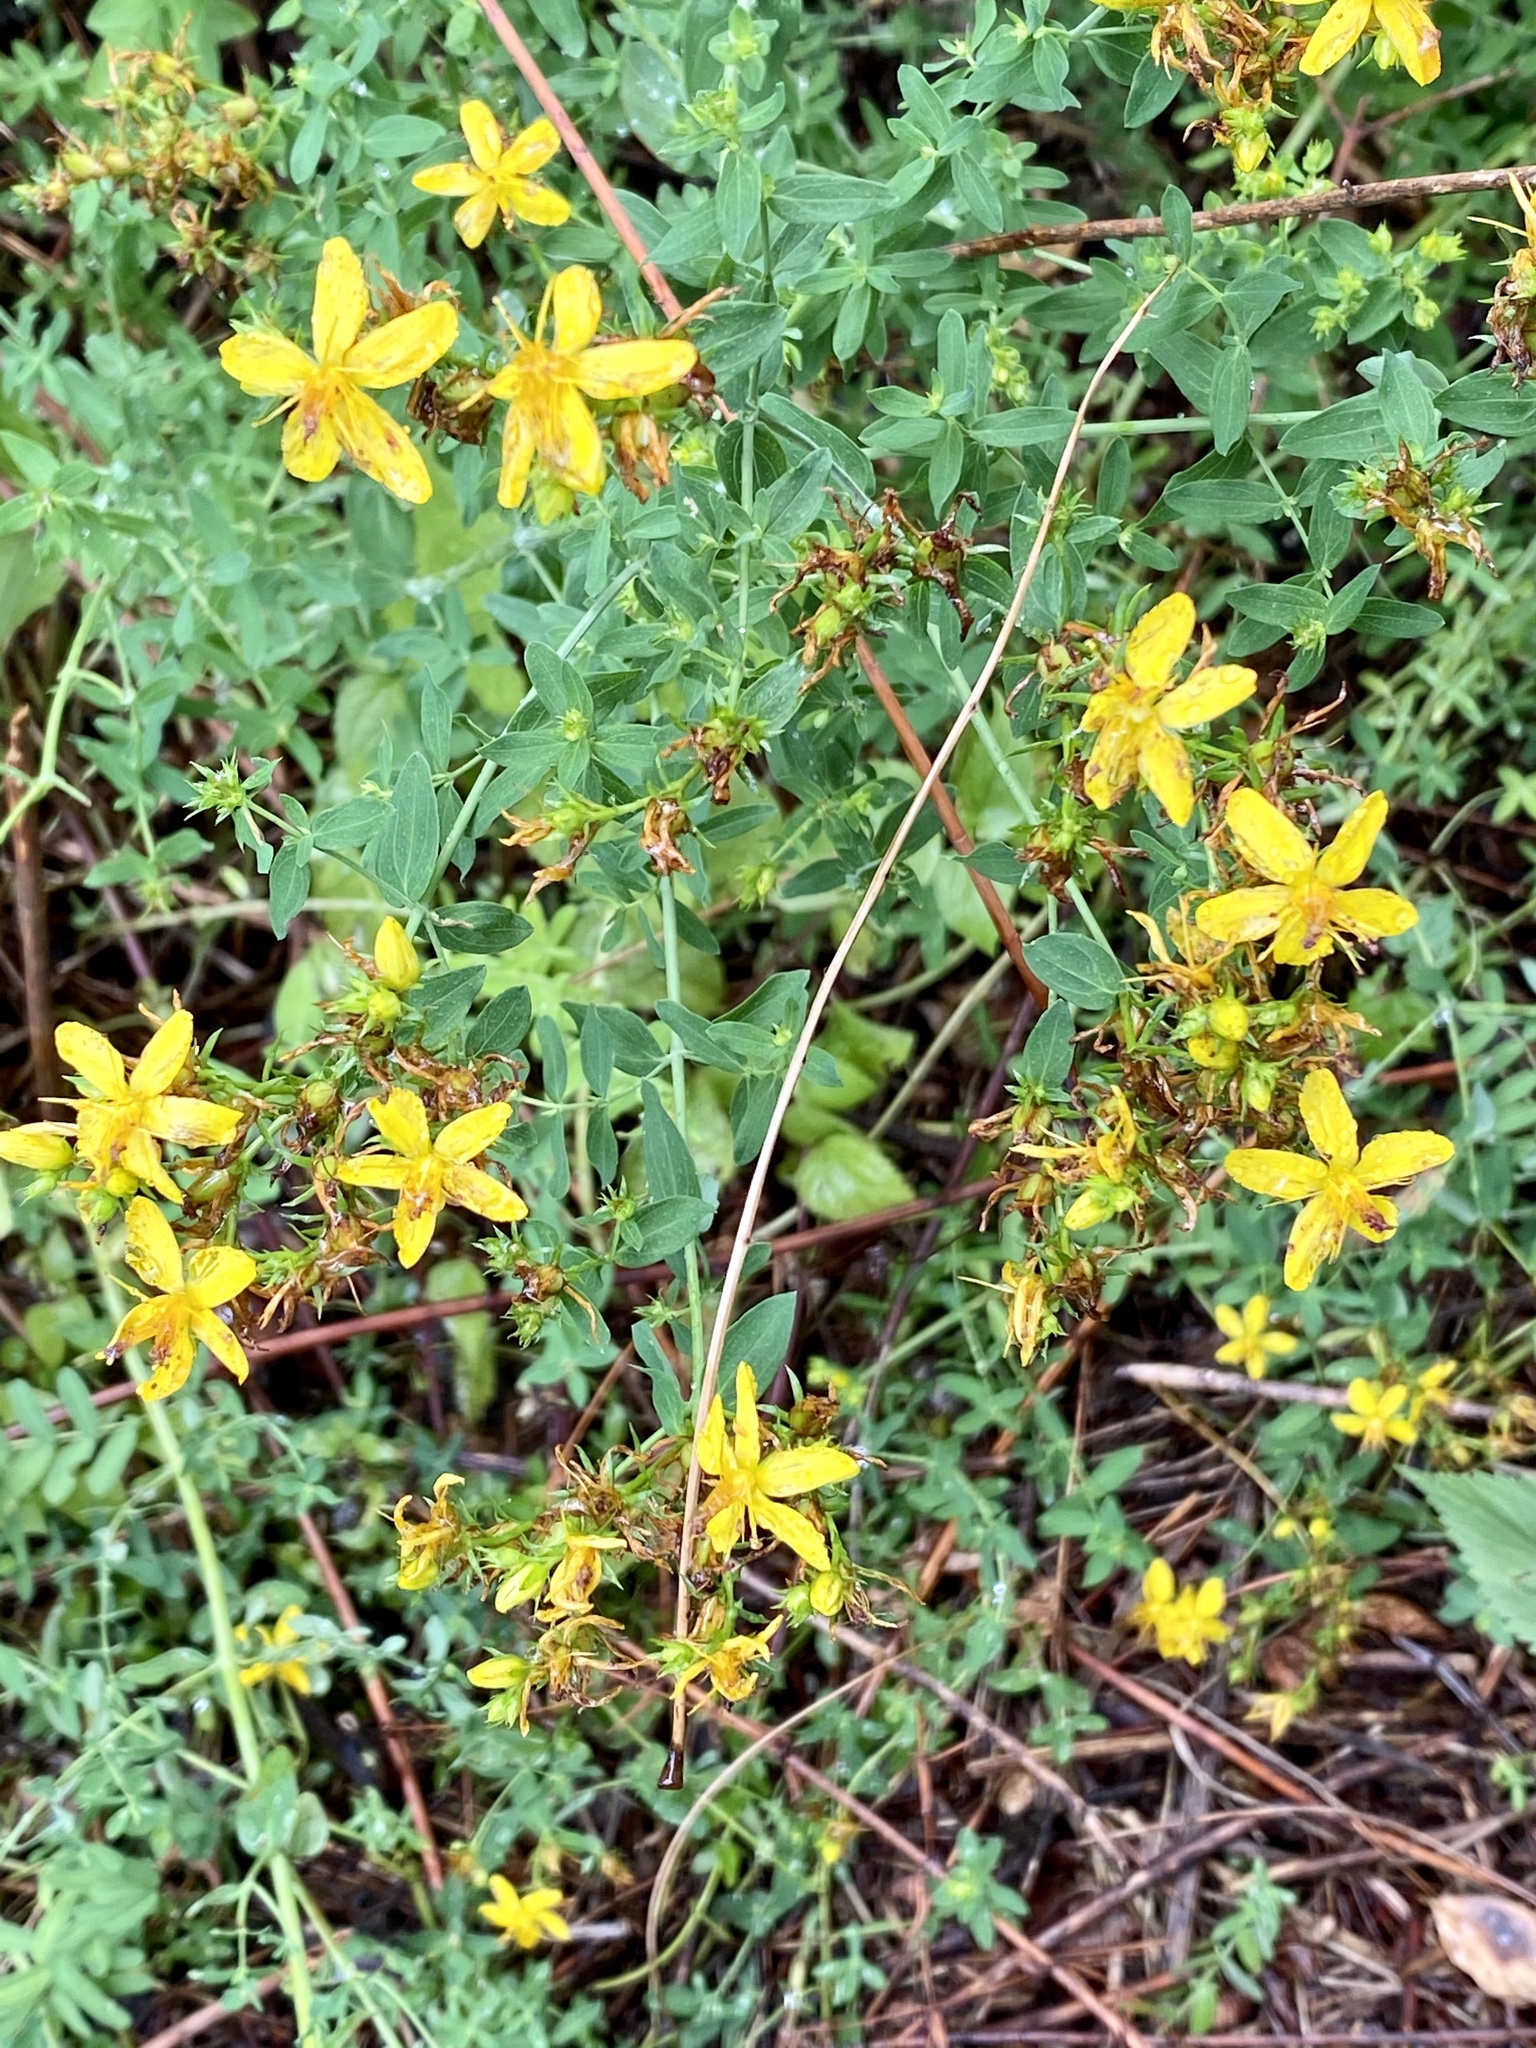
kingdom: Plantae
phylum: Tracheophyta
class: Magnoliopsida
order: Malpighiales
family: Hypericaceae
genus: Hypericum
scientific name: Hypericum perforatum
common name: Common st. johnswort
